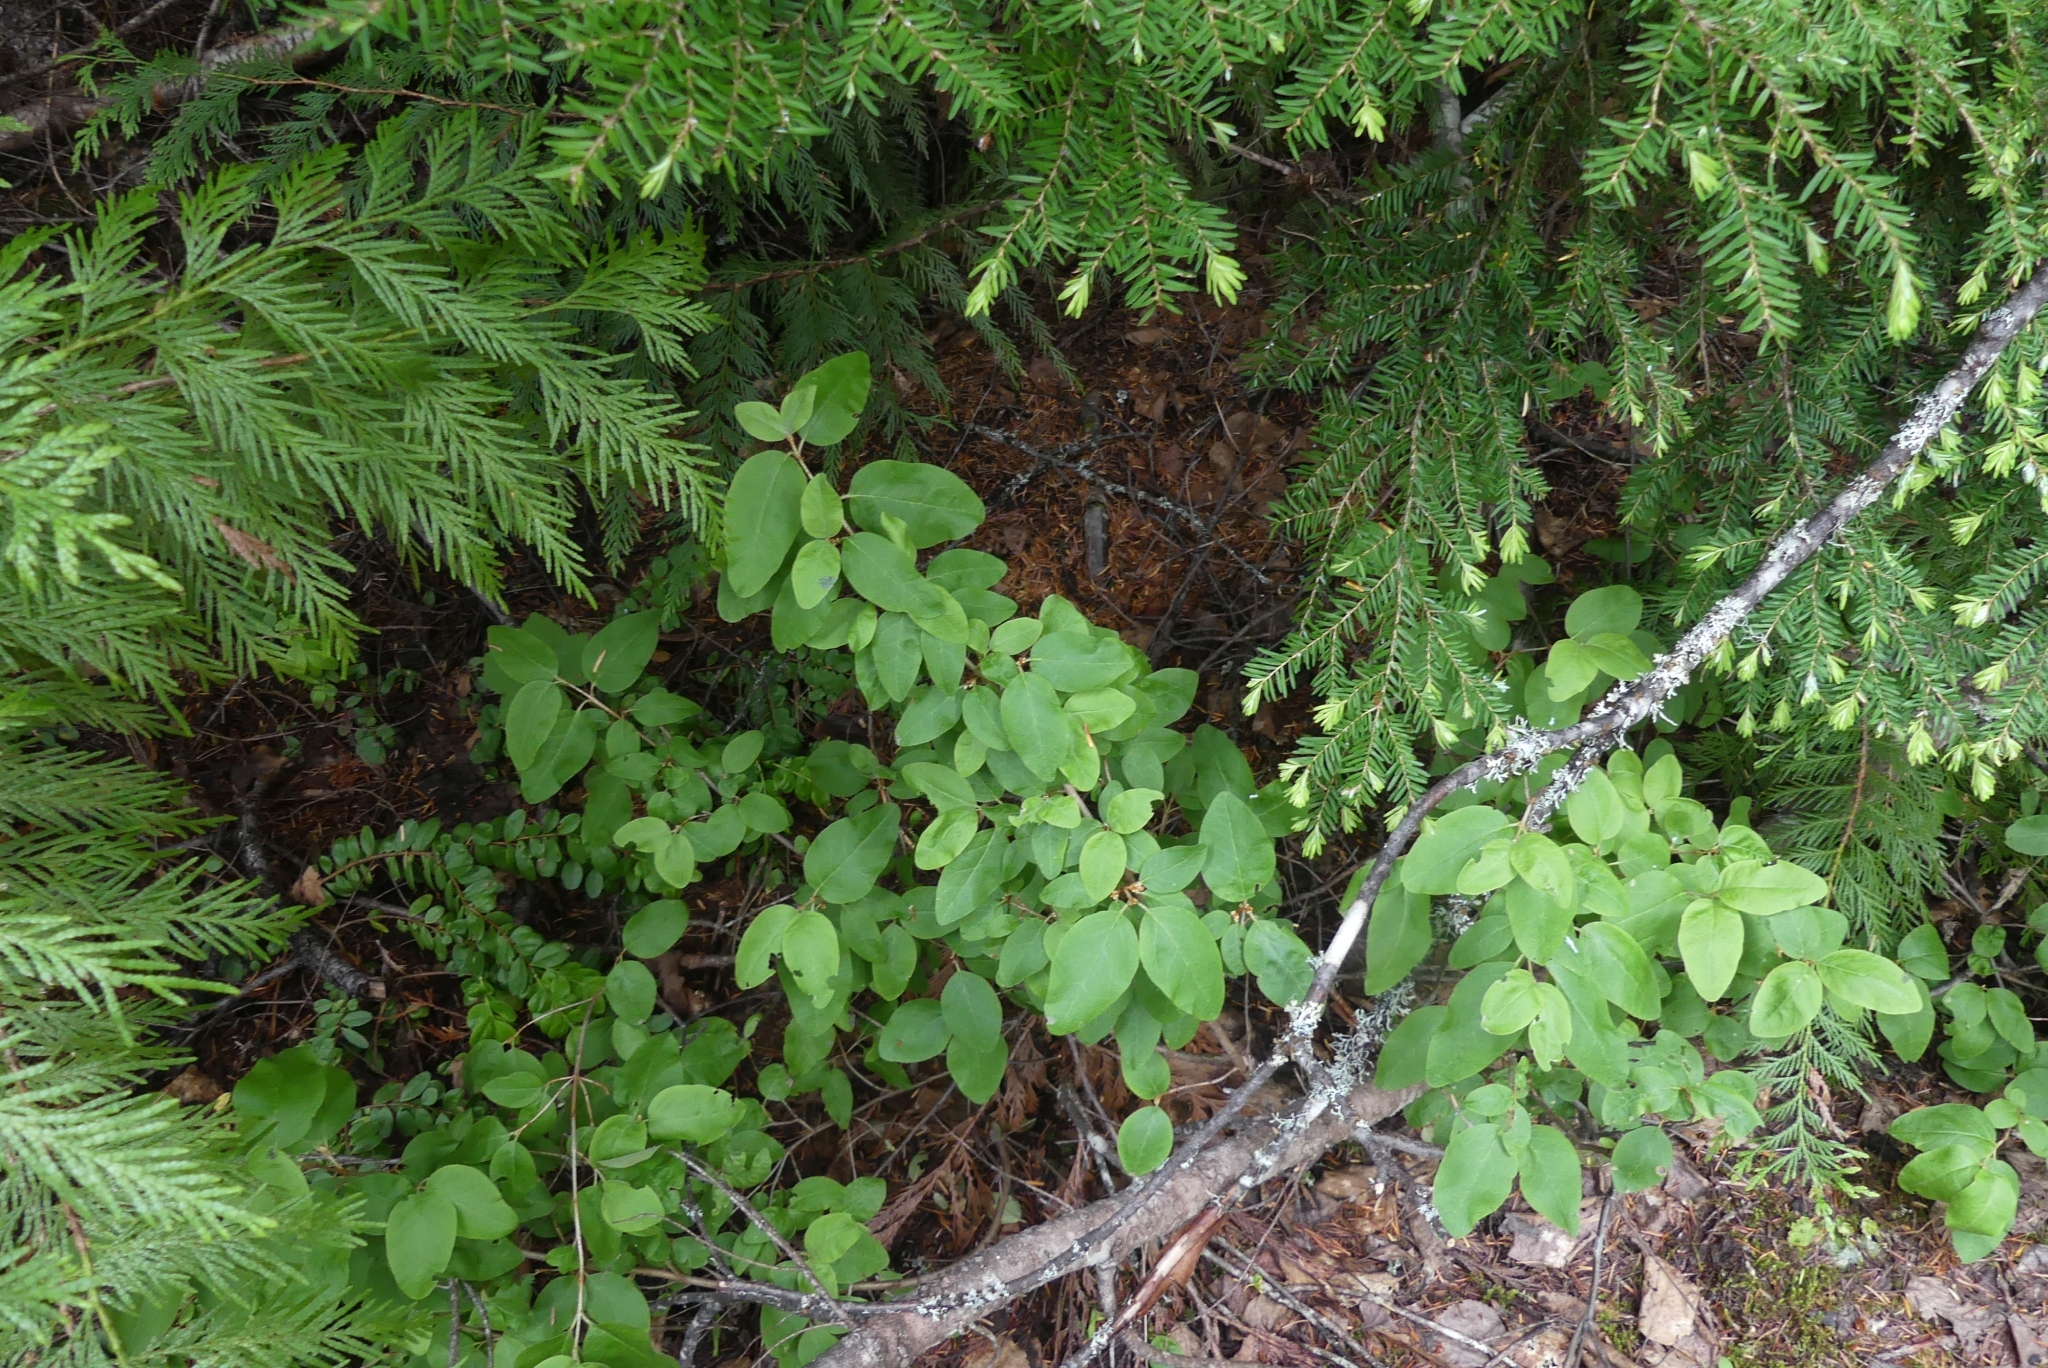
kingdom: Plantae
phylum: Tracheophyta
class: Magnoliopsida
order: Rosales
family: Elaeagnaceae
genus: Shepherdia
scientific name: Shepherdia canadensis
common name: Soapberry
